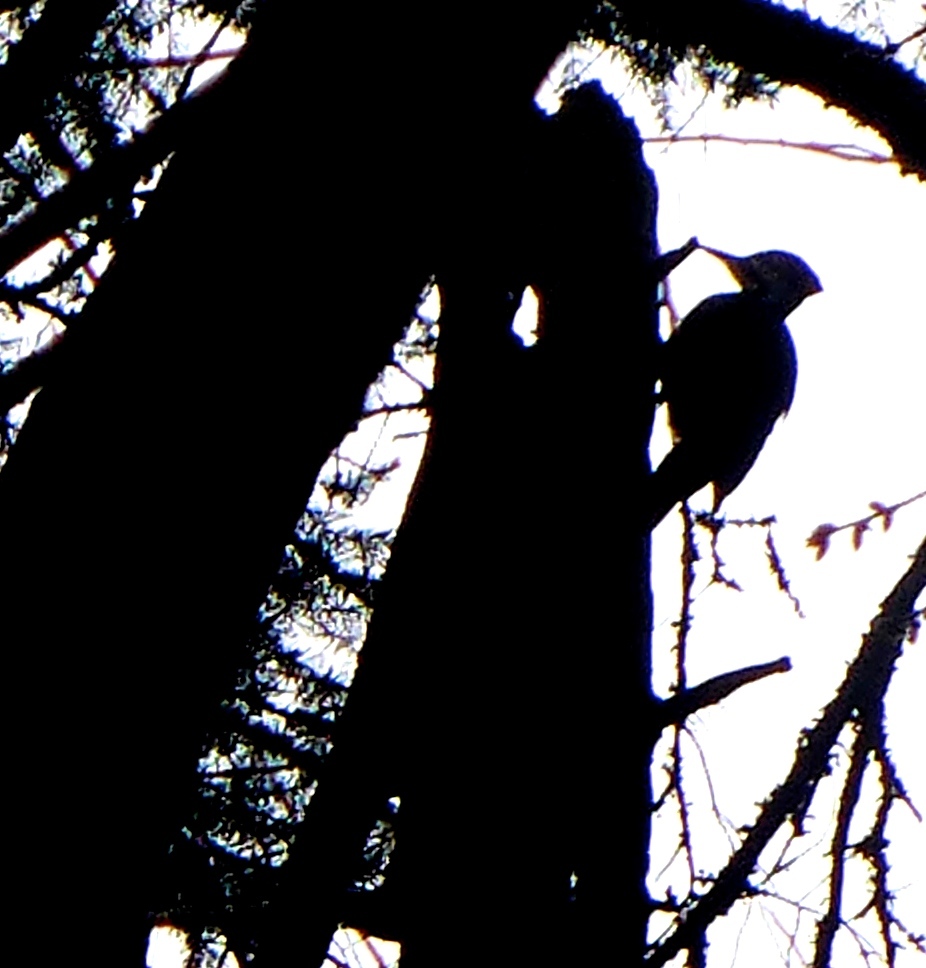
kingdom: Animalia
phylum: Chordata
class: Aves
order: Piciformes
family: Picidae
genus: Dryocopus
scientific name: Dryocopus pileatus
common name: Pileated woodpecker
